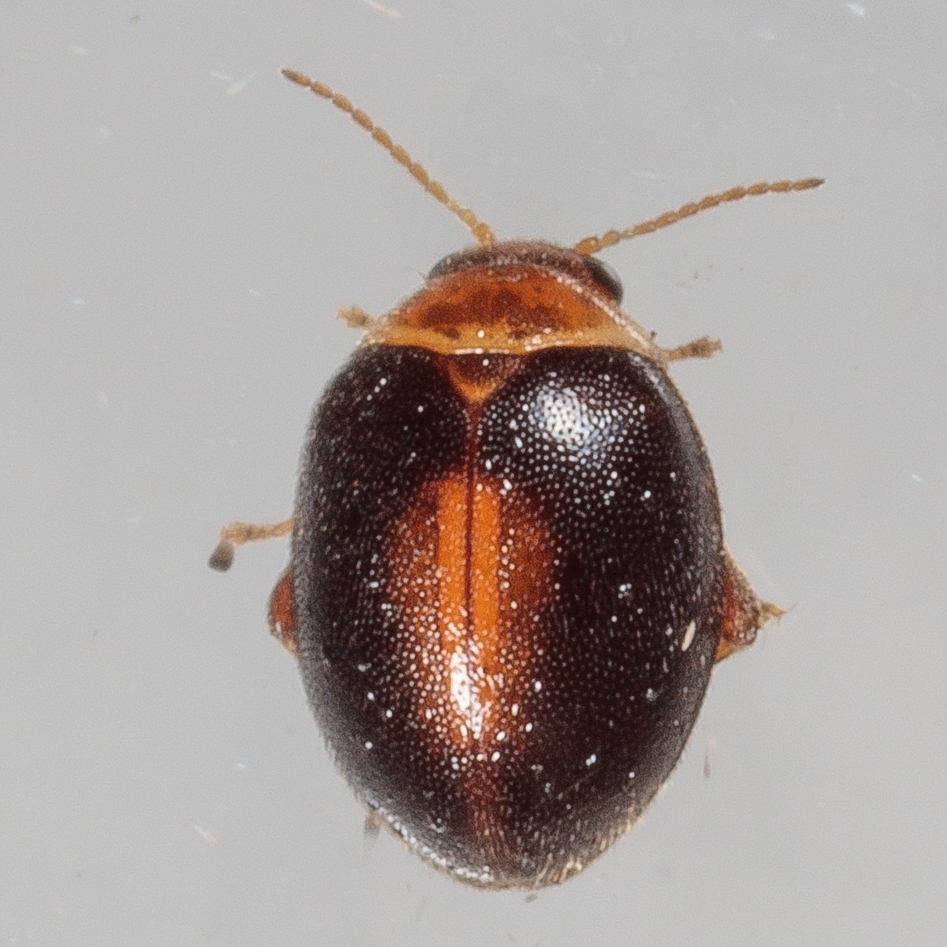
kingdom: Animalia
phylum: Arthropoda
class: Insecta
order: Coleoptera
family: Scirtidae
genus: Scirtes
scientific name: Scirtes orbiculatus
